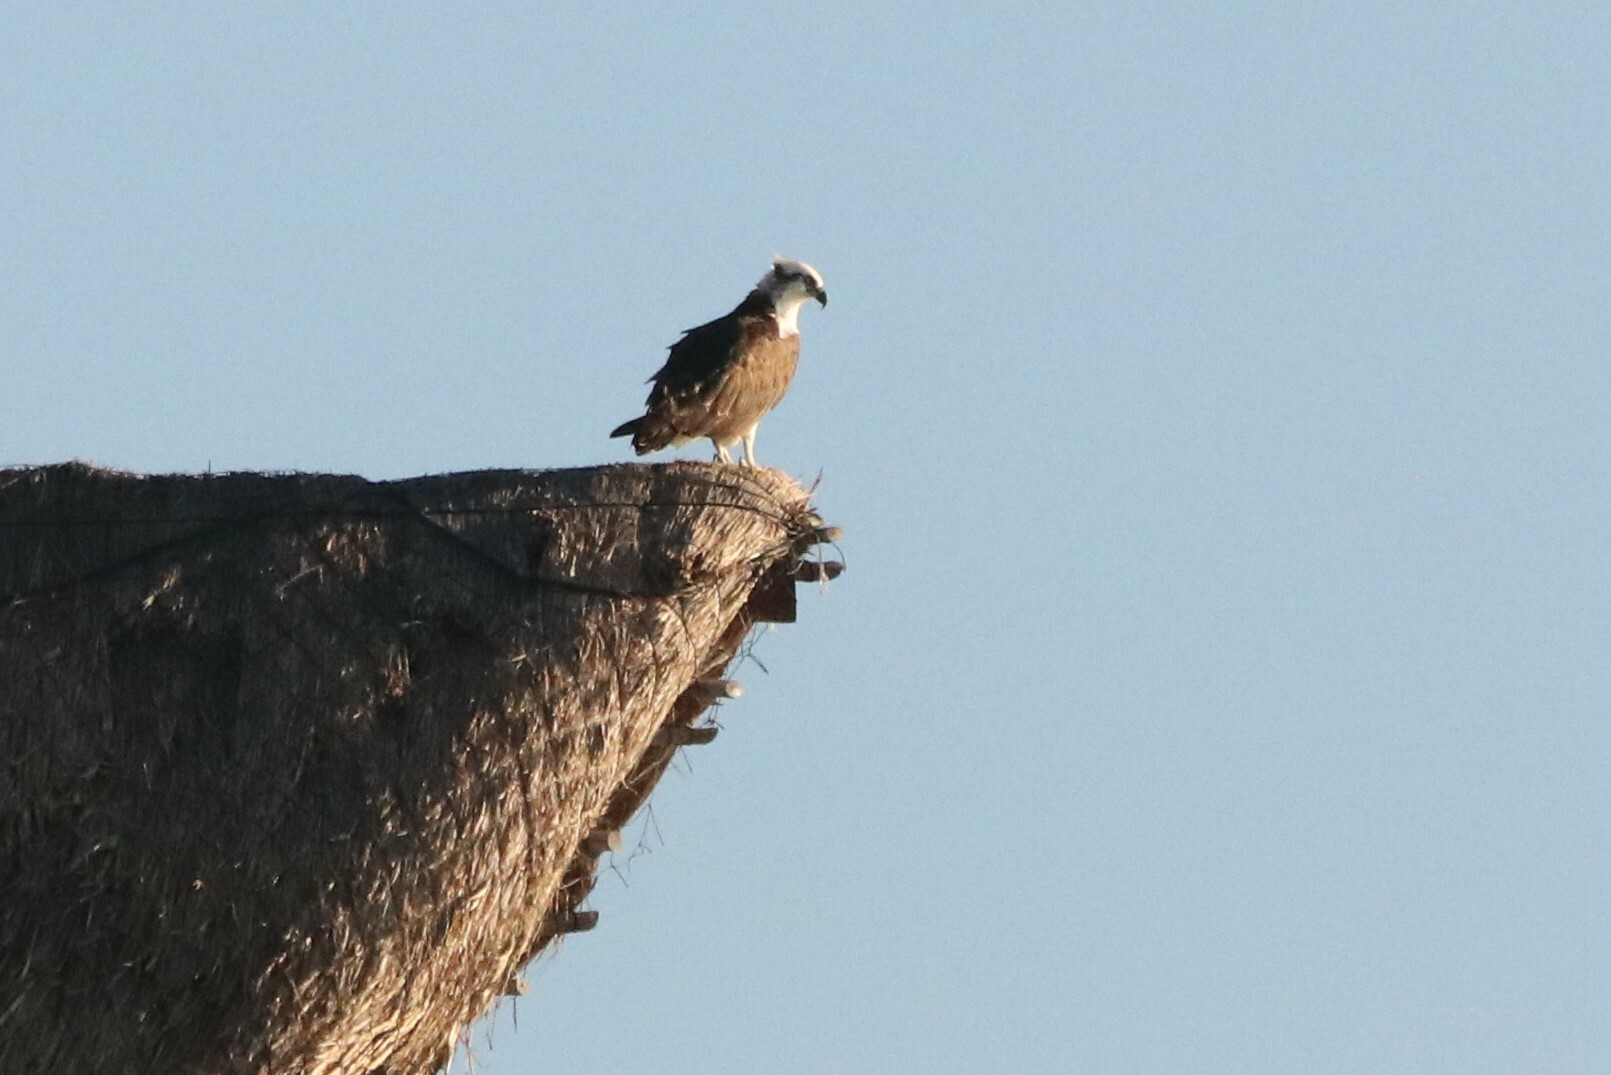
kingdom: Animalia
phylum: Chordata
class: Aves
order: Accipitriformes
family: Pandionidae
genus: Pandion
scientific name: Pandion haliaetus
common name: Osprey
